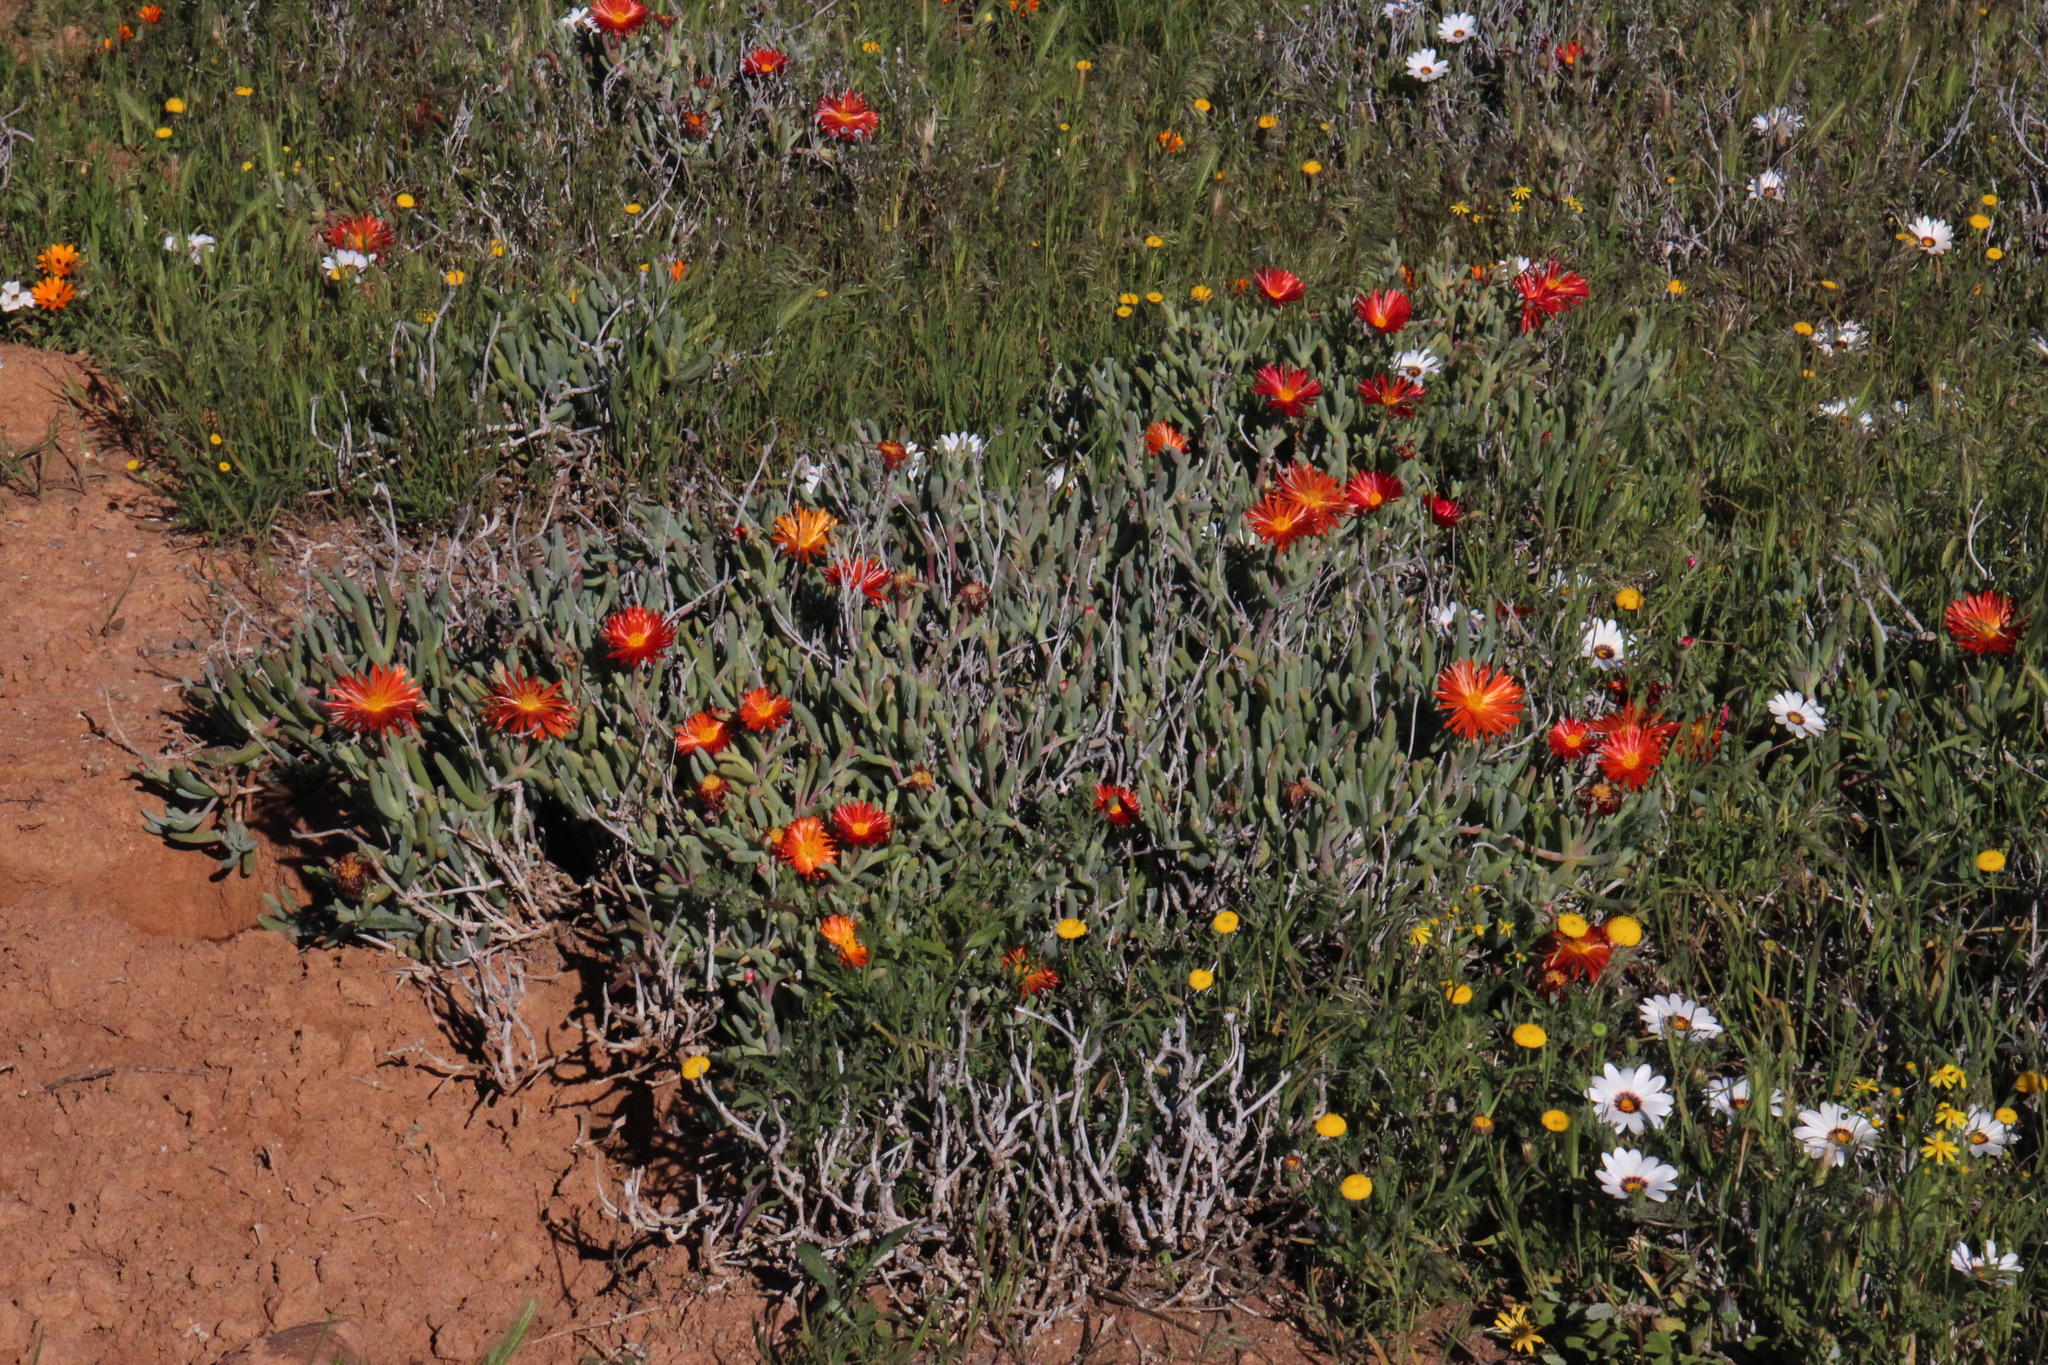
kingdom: Plantae
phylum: Tracheophyta
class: Magnoliopsida
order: Caryophyllales
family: Aizoaceae
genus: Malephora
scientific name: Malephora purpureocrocea
